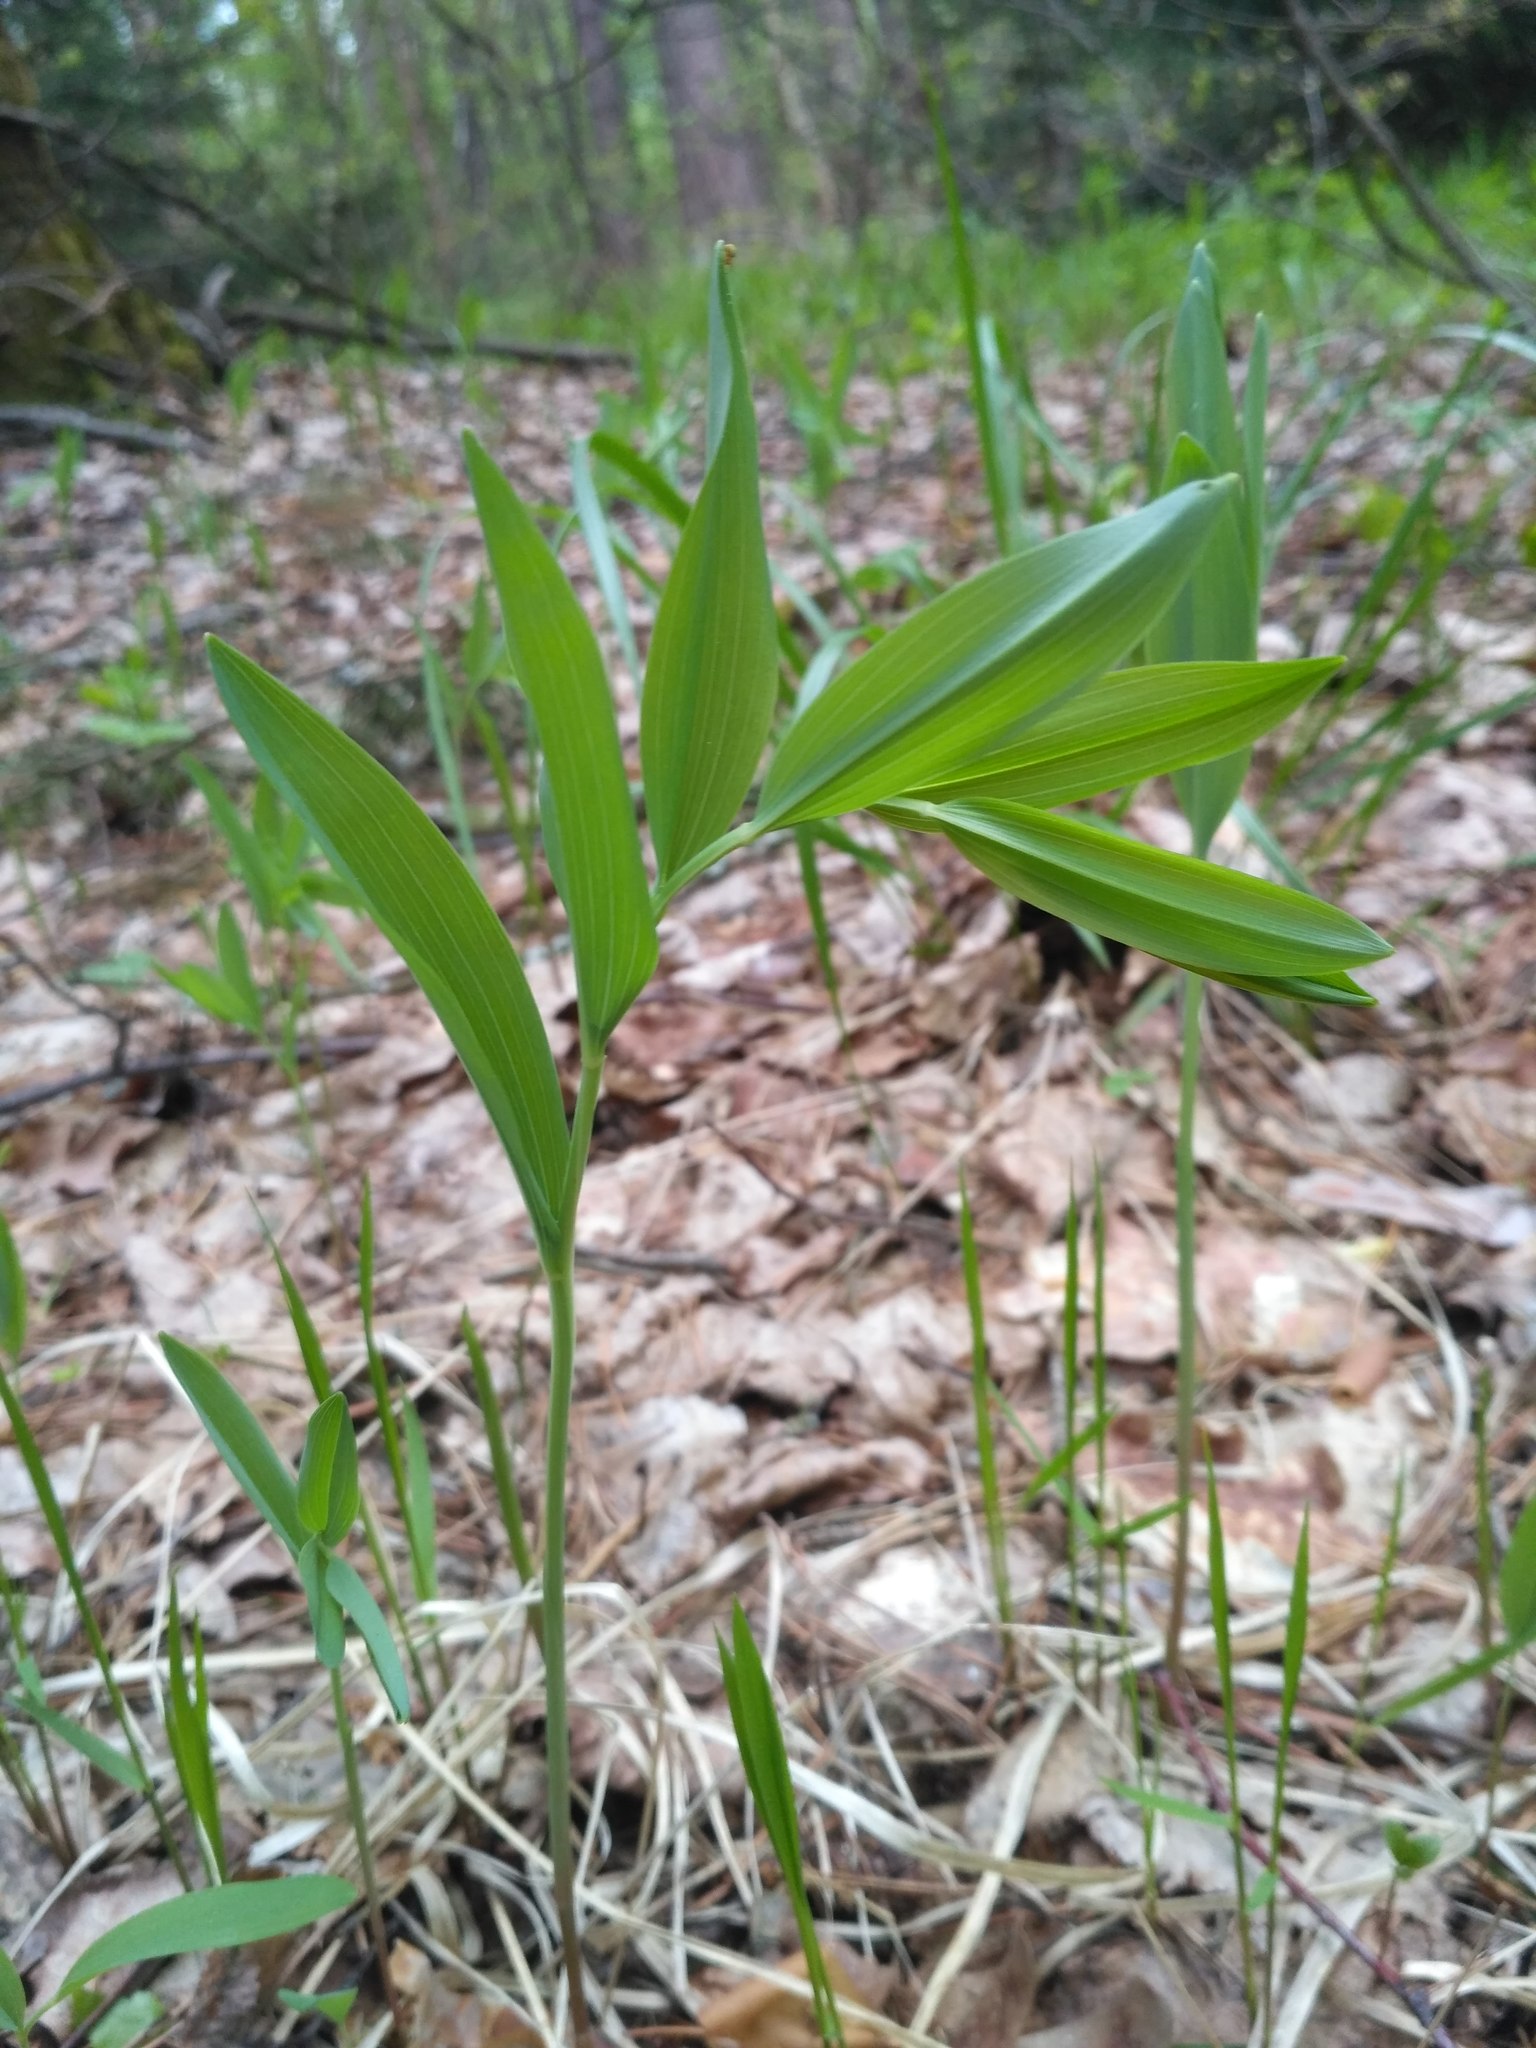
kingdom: Plantae
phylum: Tracheophyta
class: Liliopsida
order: Asparagales
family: Asparagaceae
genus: Polygonatum
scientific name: Polygonatum odoratum
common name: Angular solomon's-seal
